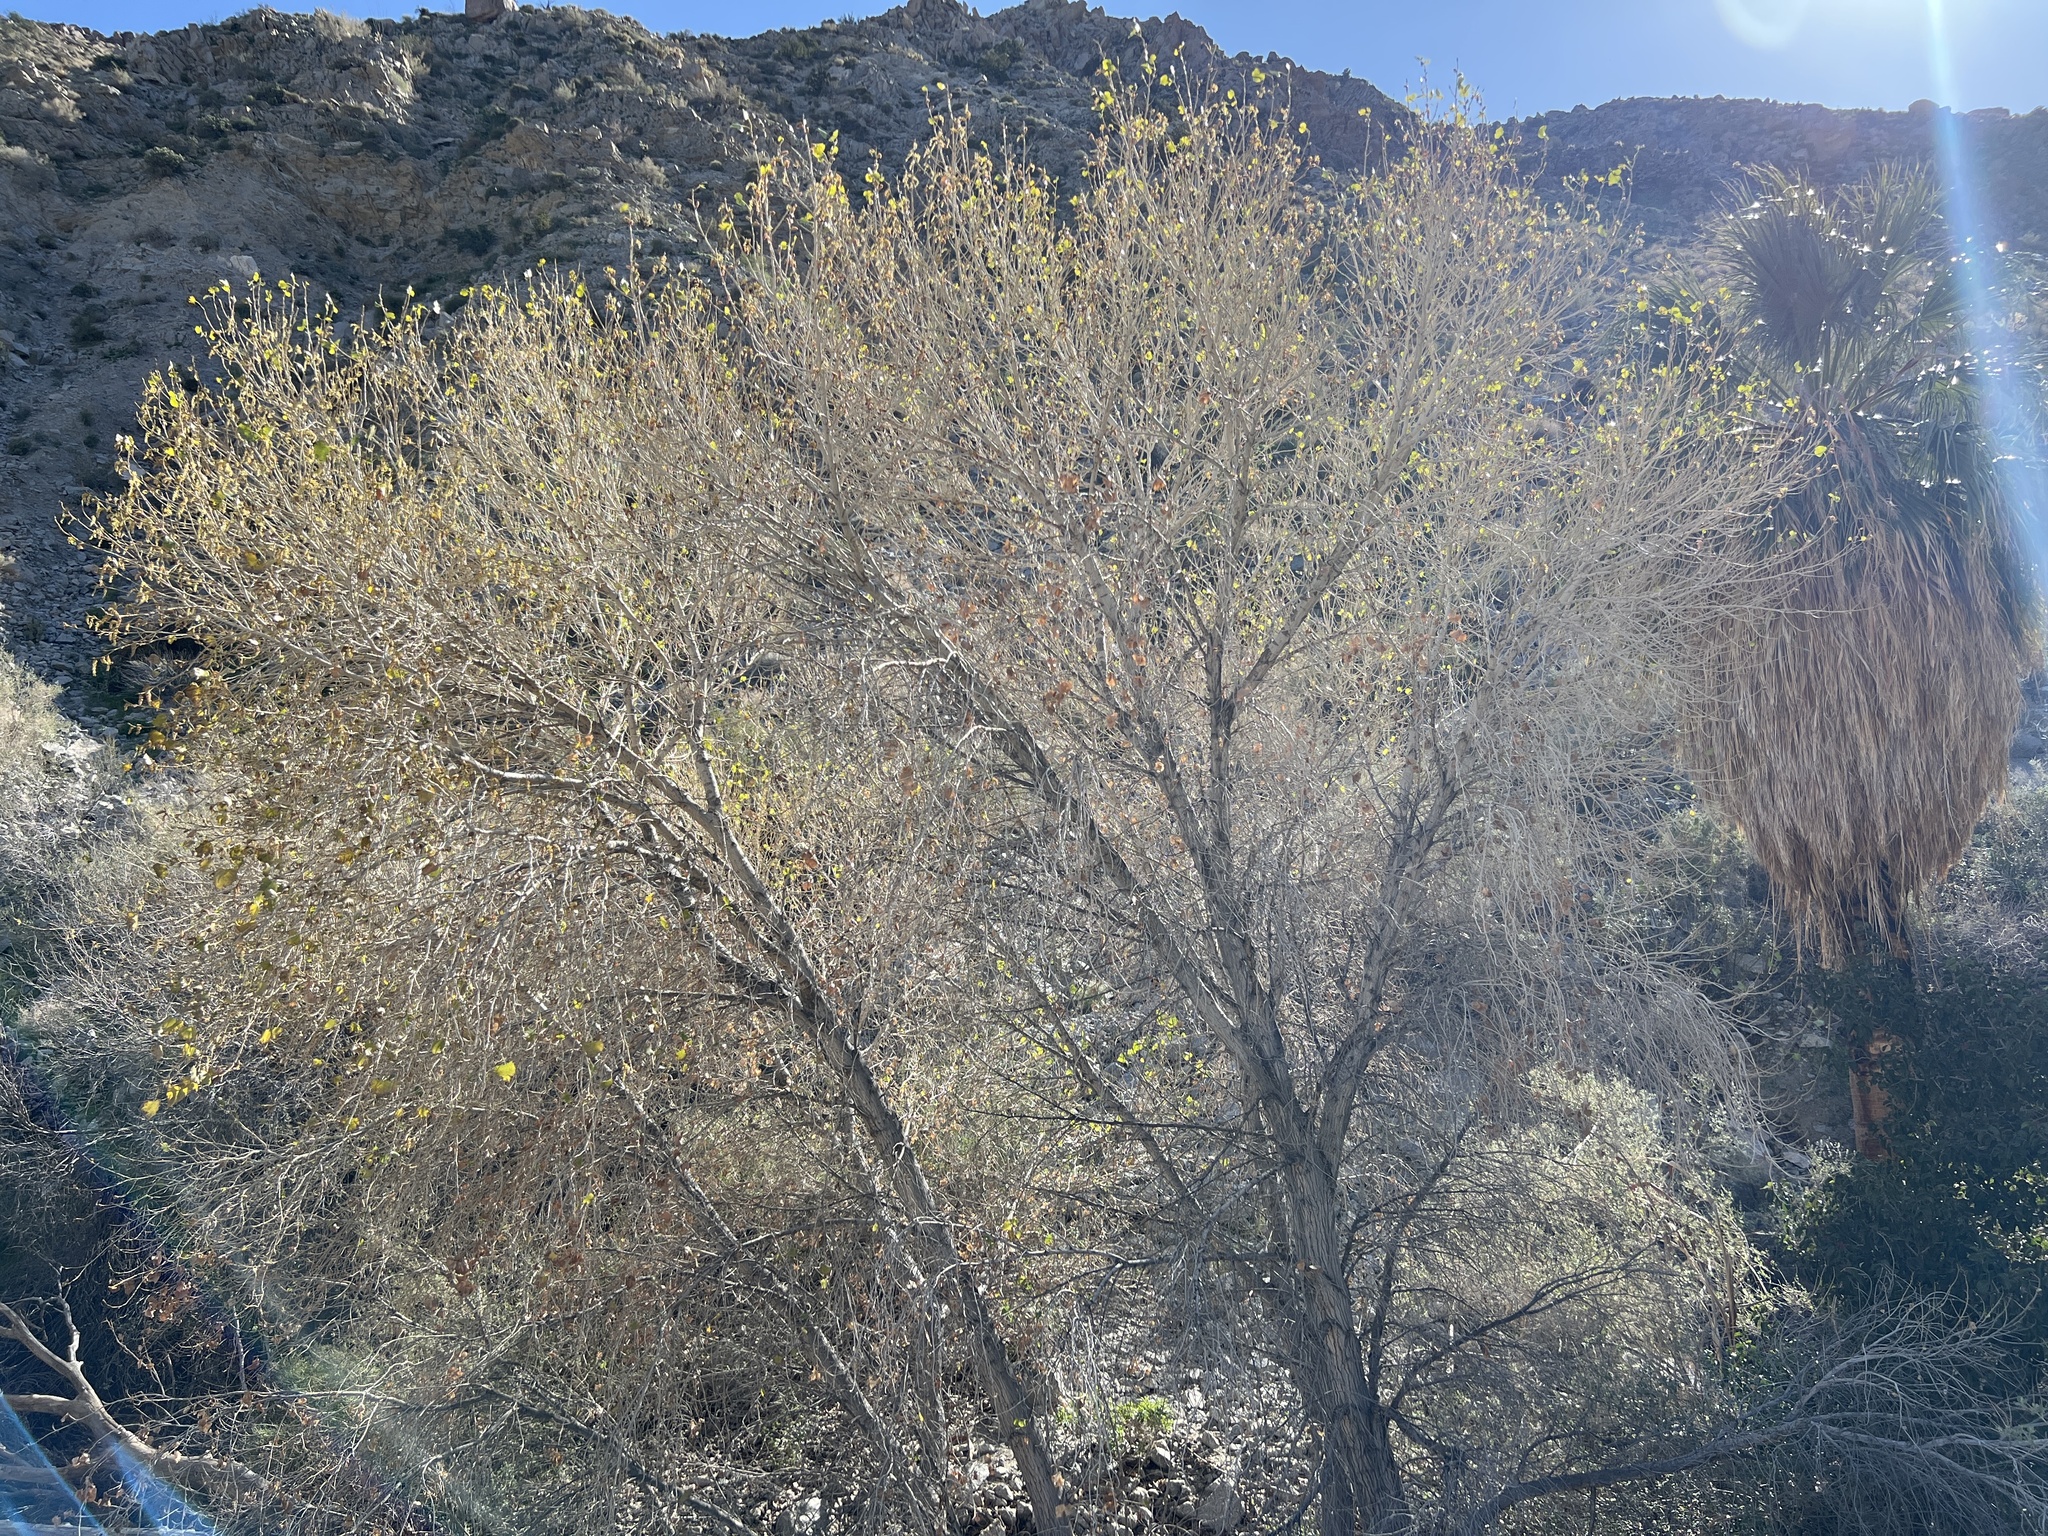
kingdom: Plantae
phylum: Tracheophyta
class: Magnoliopsida
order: Malpighiales
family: Salicaceae
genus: Populus
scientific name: Populus fremontii
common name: Fremont's cottonwood
